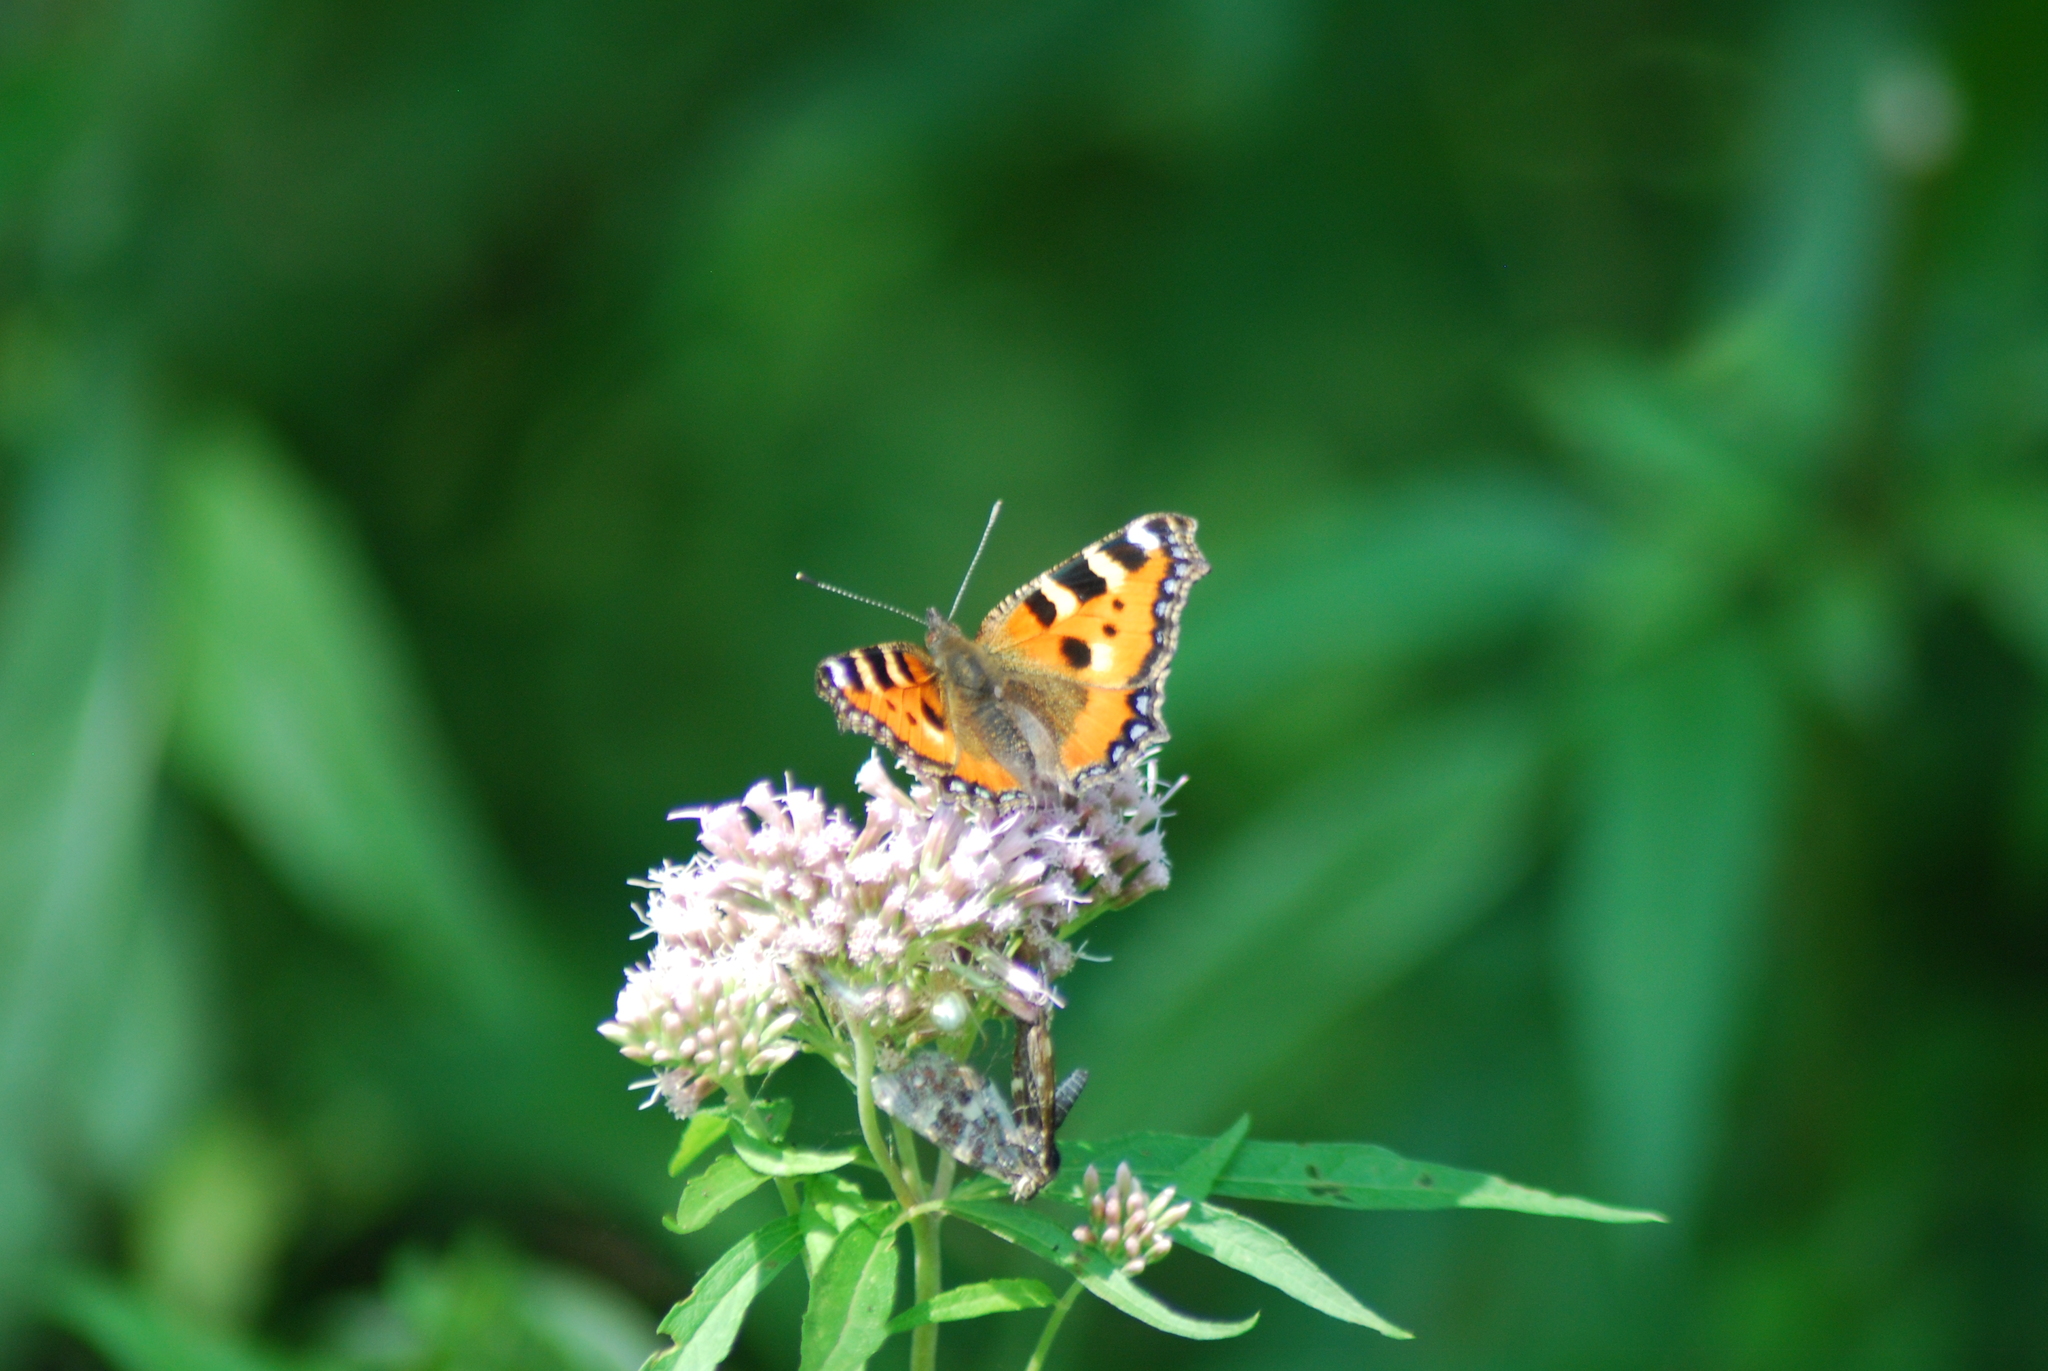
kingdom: Animalia
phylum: Arthropoda
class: Insecta
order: Lepidoptera
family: Nymphalidae
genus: Aglais
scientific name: Aglais urticae
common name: Small tortoiseshell
